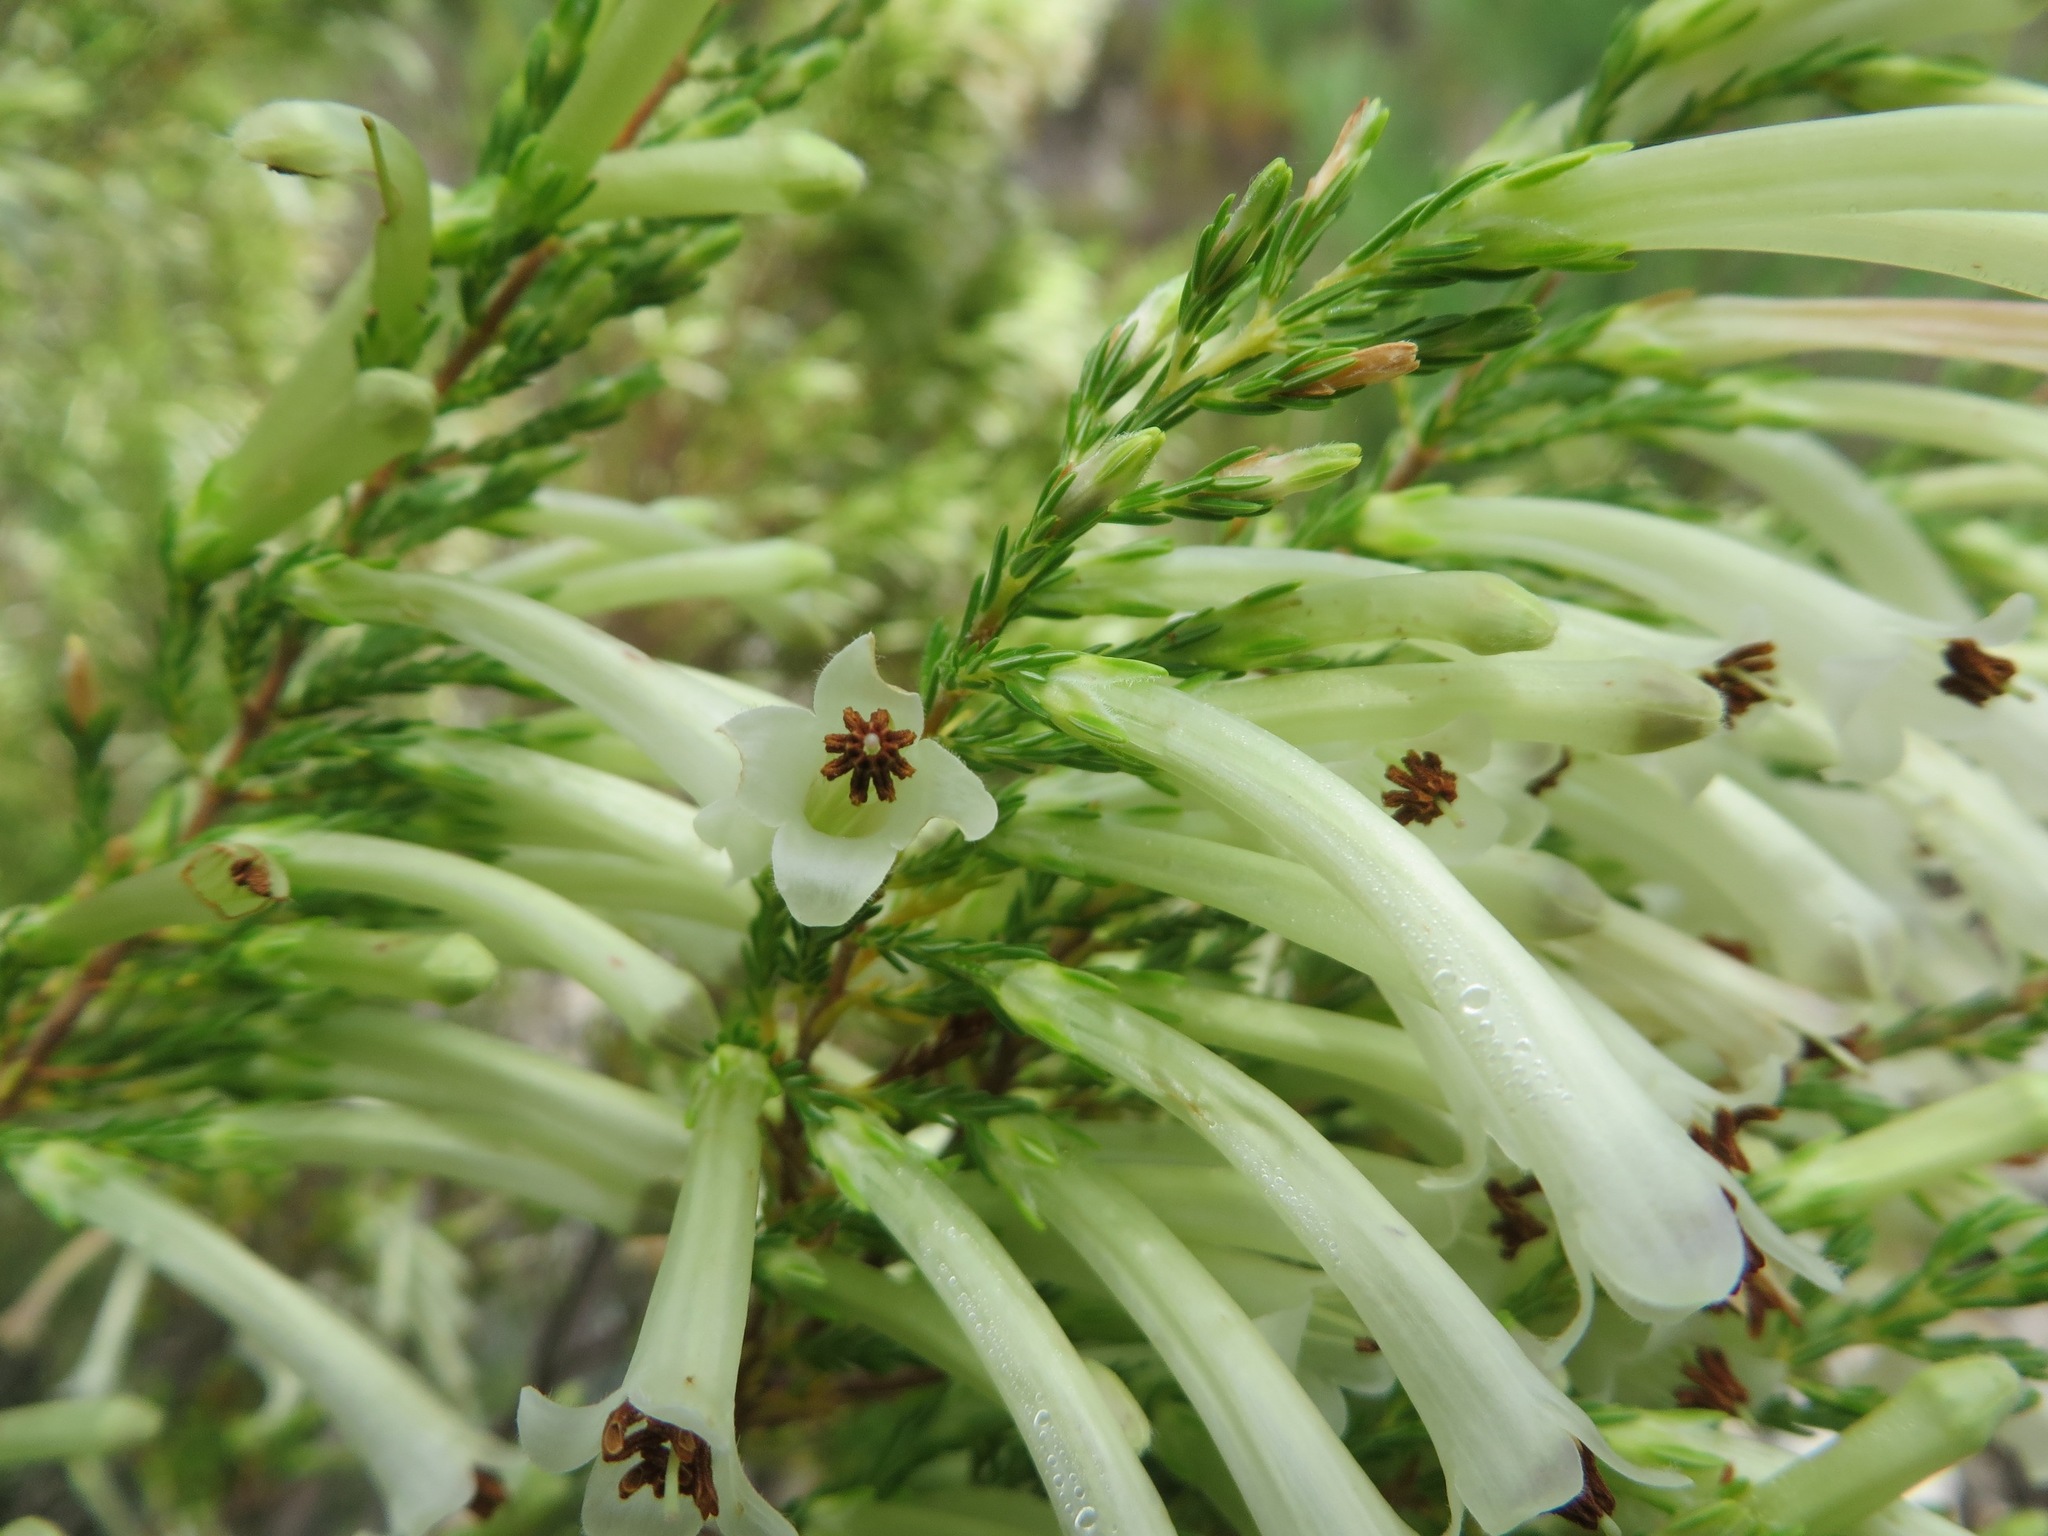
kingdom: Plantae
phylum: Tracheophyta
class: Magnoliopsida
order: Ericales
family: Ericaceae
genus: Erica
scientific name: Erica curviflora
